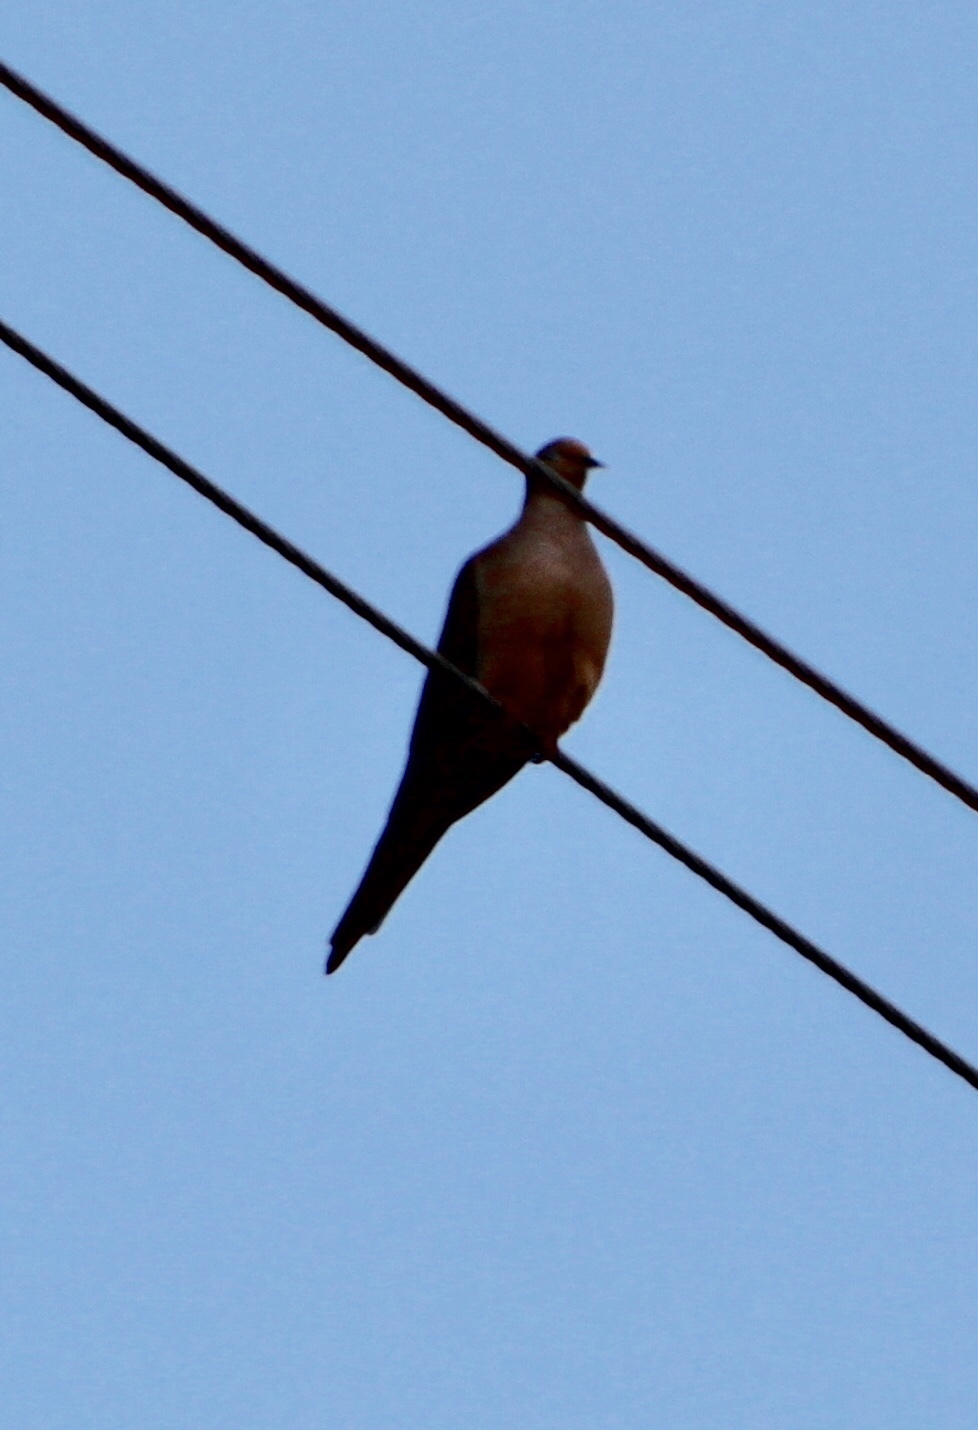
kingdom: Animalia
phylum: Chordata
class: Aves
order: Columbiformes
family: Columbidae
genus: Zenaida
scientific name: Zenaida macroura
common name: Mourning dove
